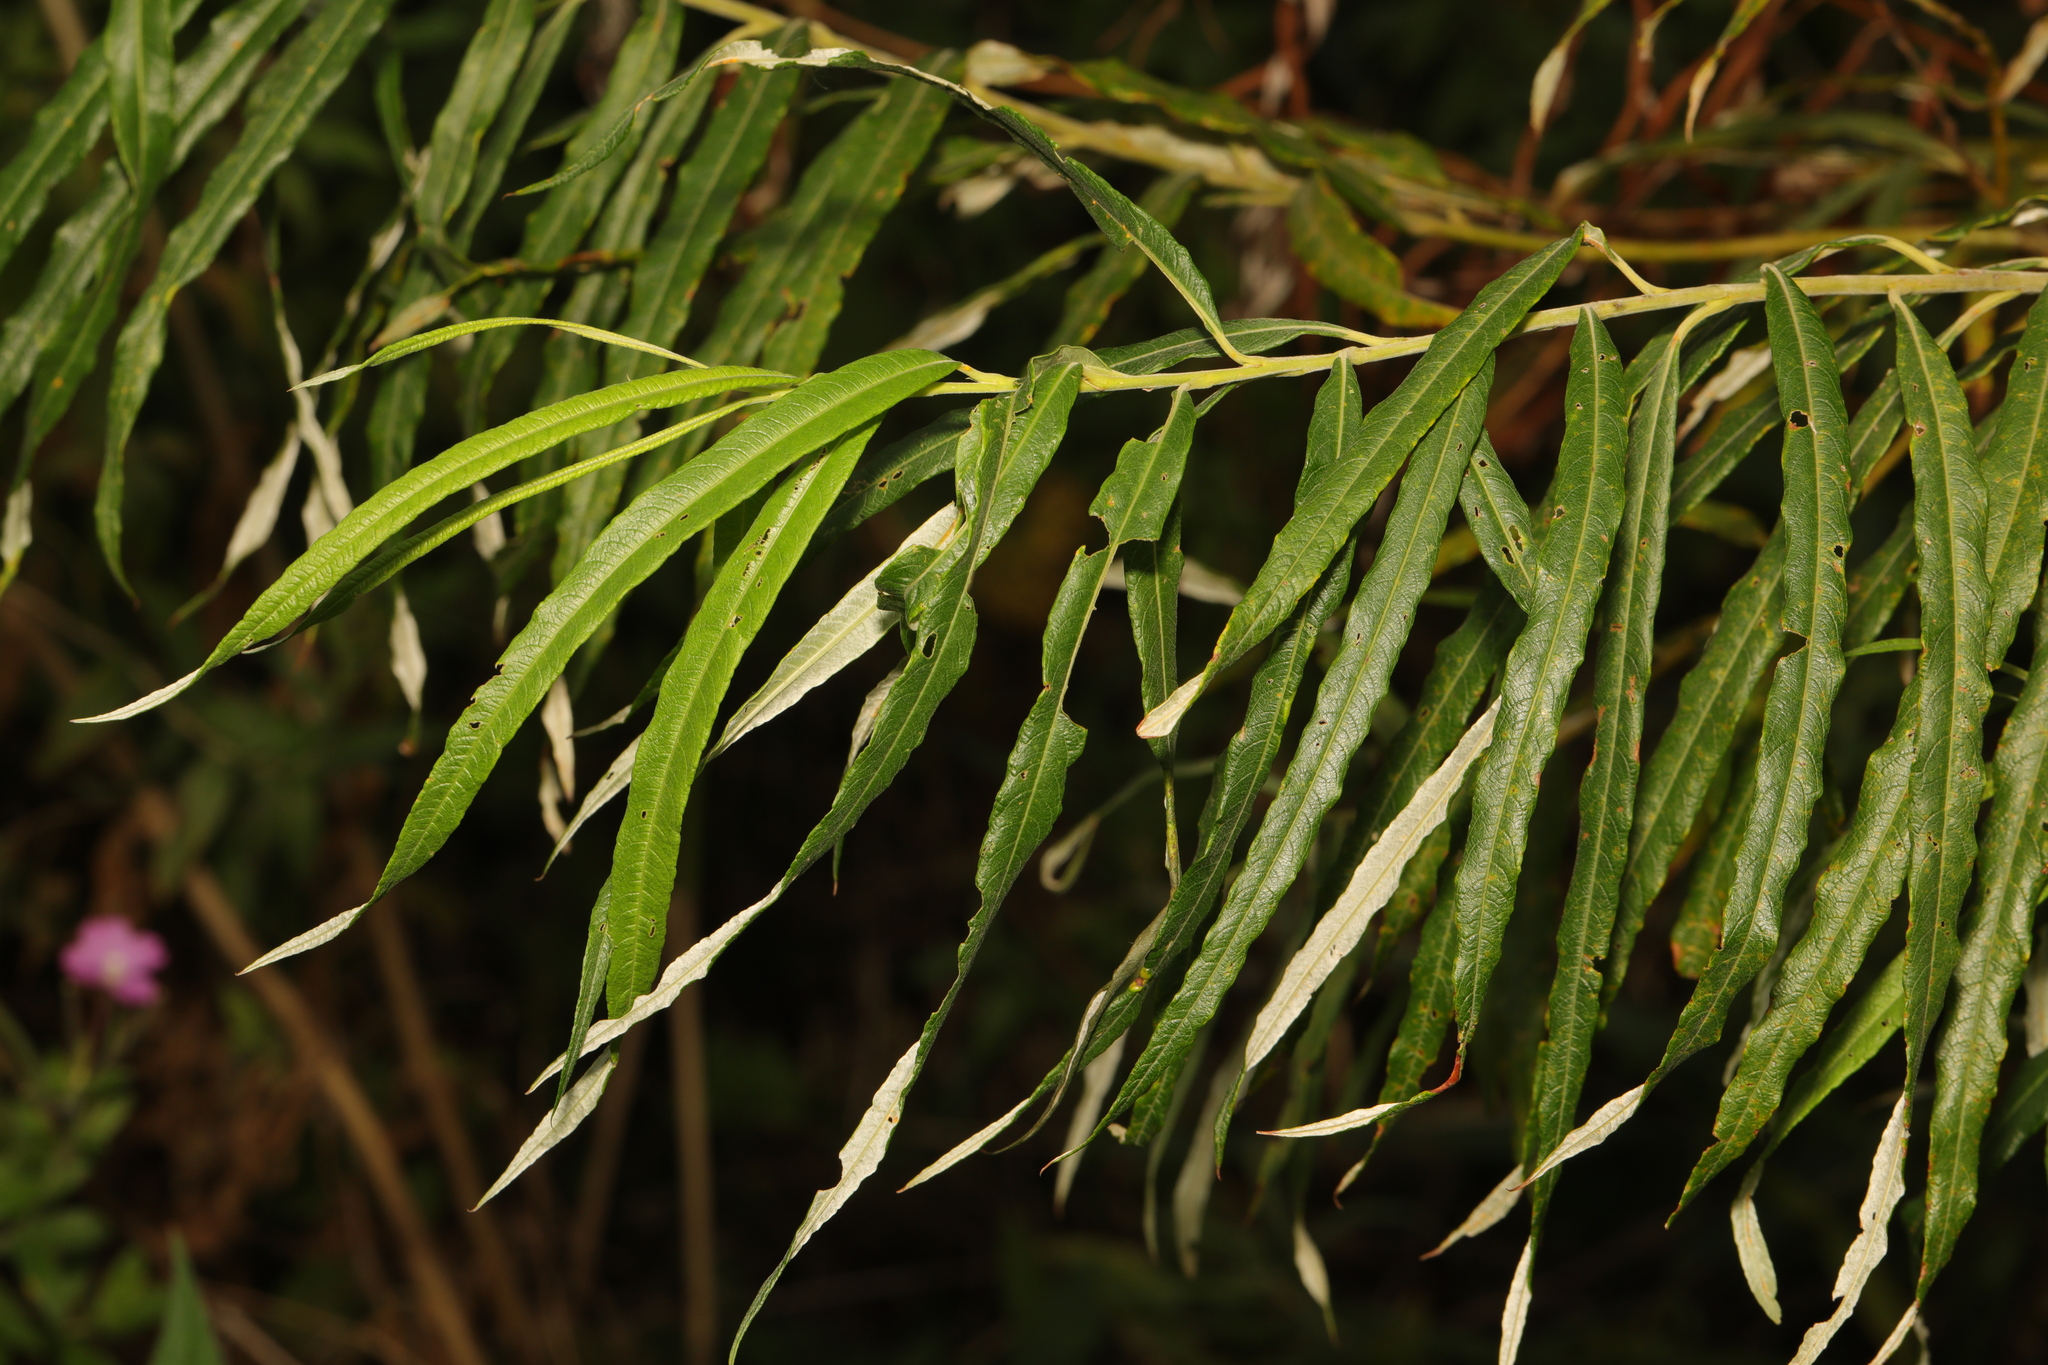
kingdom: Plantae
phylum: Tracheophyta
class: Magnoliopsida
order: Malpighiales
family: Salicaceae
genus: Salix
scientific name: Salix viminalis
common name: Osier
